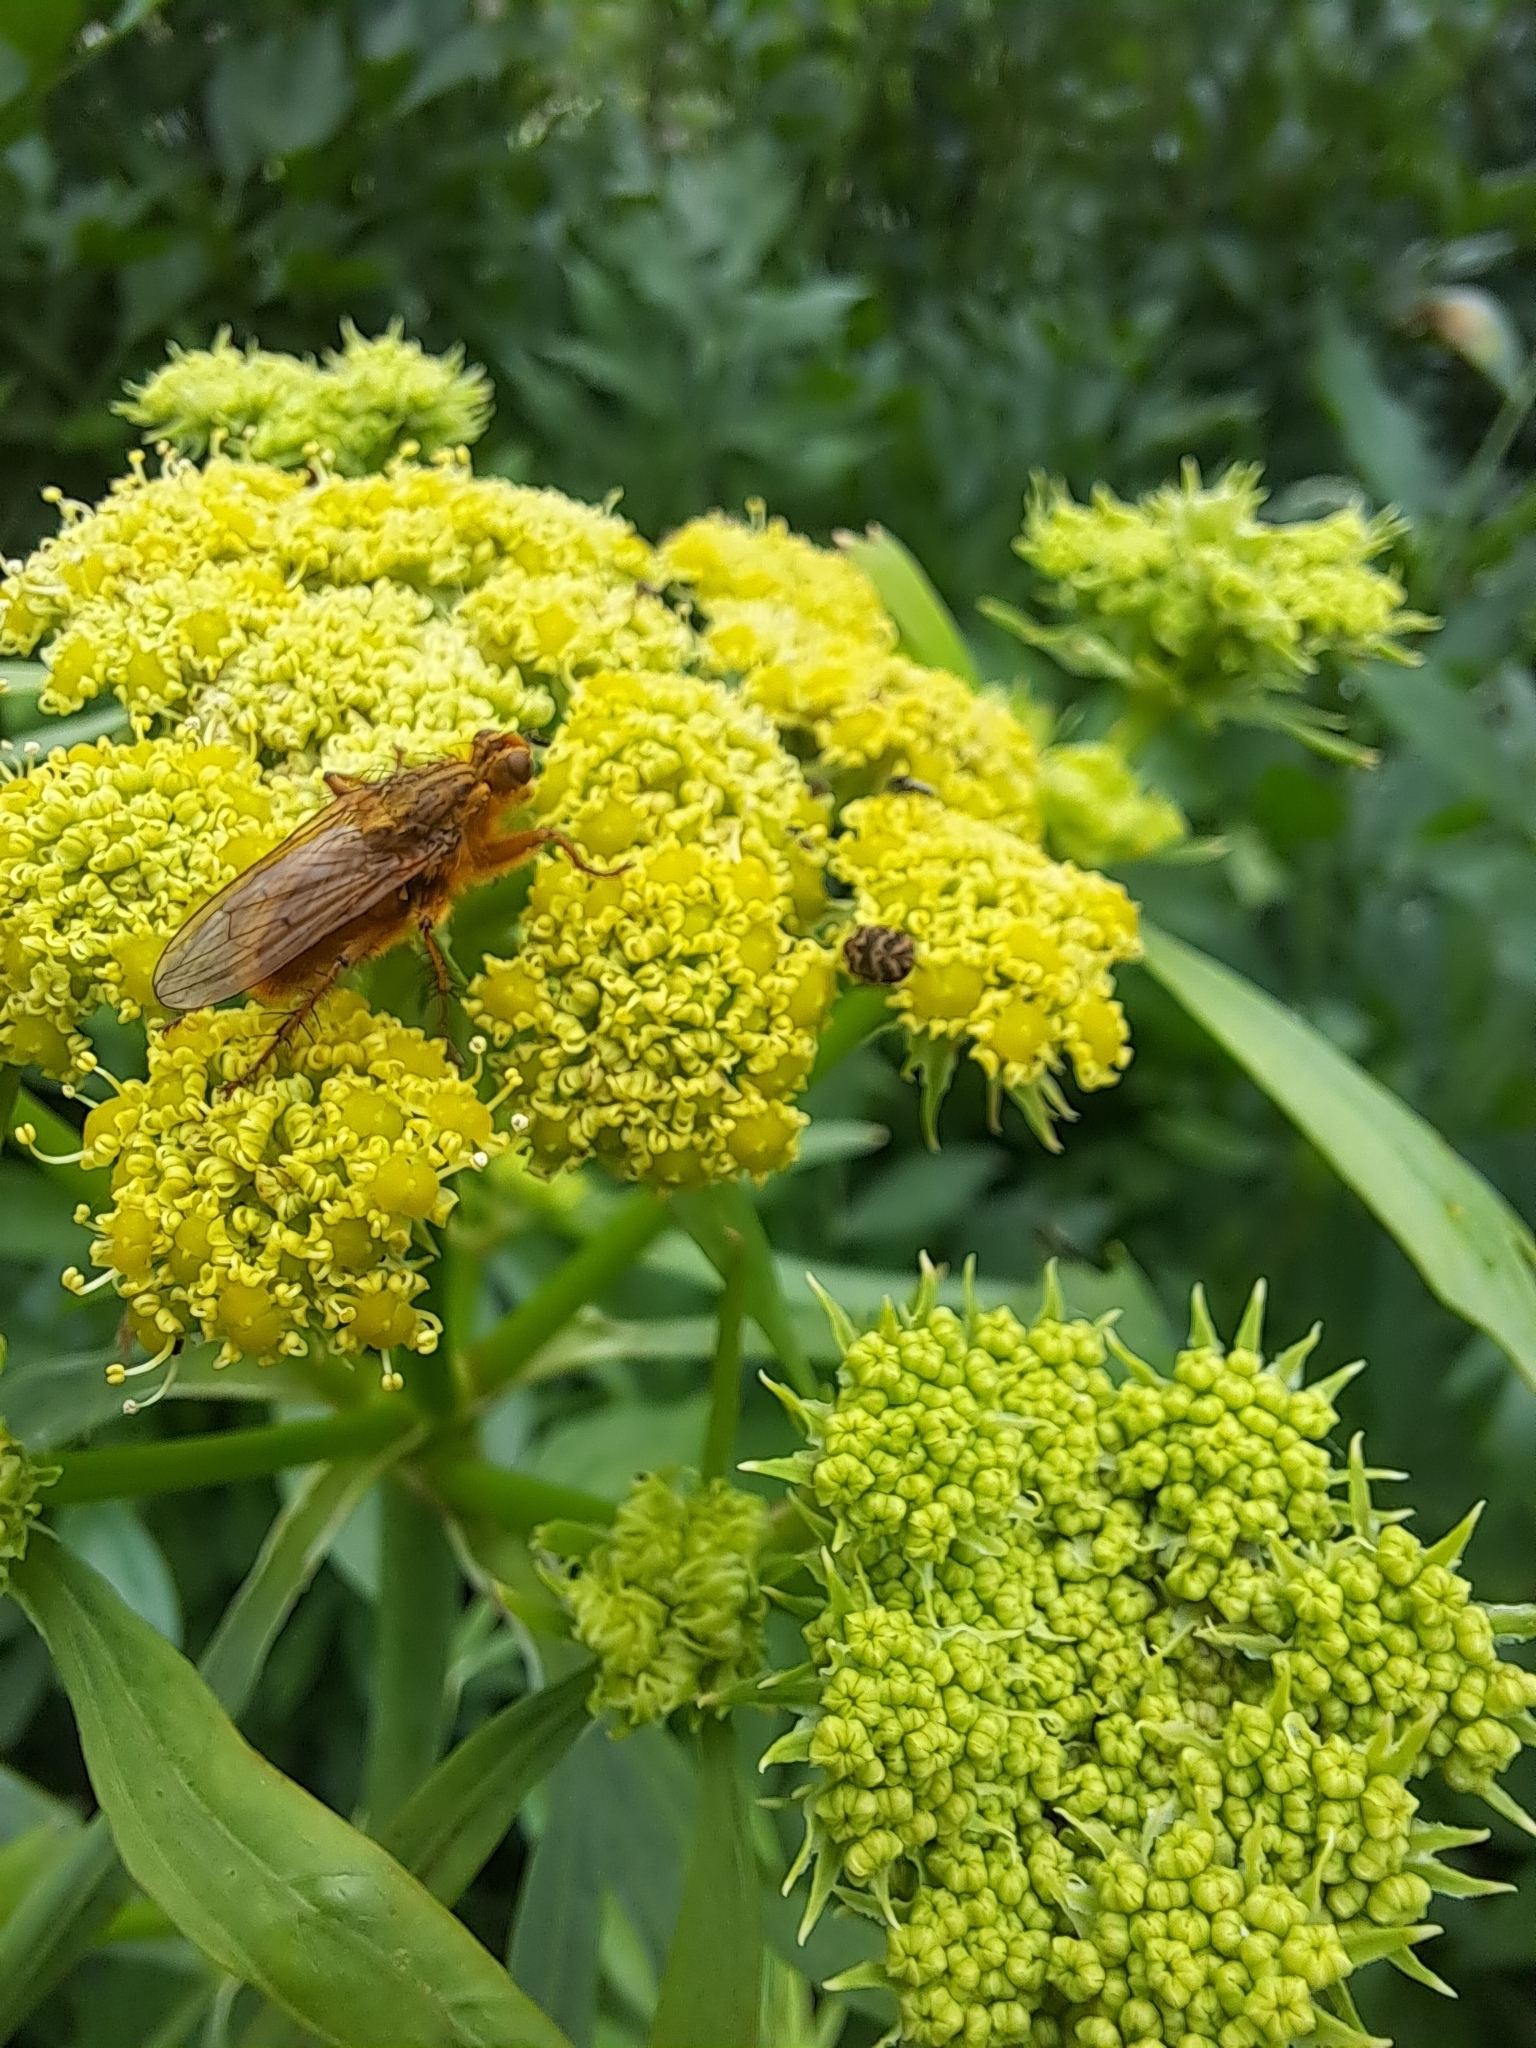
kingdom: Animalia
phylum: Arthropoda
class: Insecta
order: Diptera
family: Scathophagidae
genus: Scathophaga
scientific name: Scathophaga stercoraria
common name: Yellow dung fly
